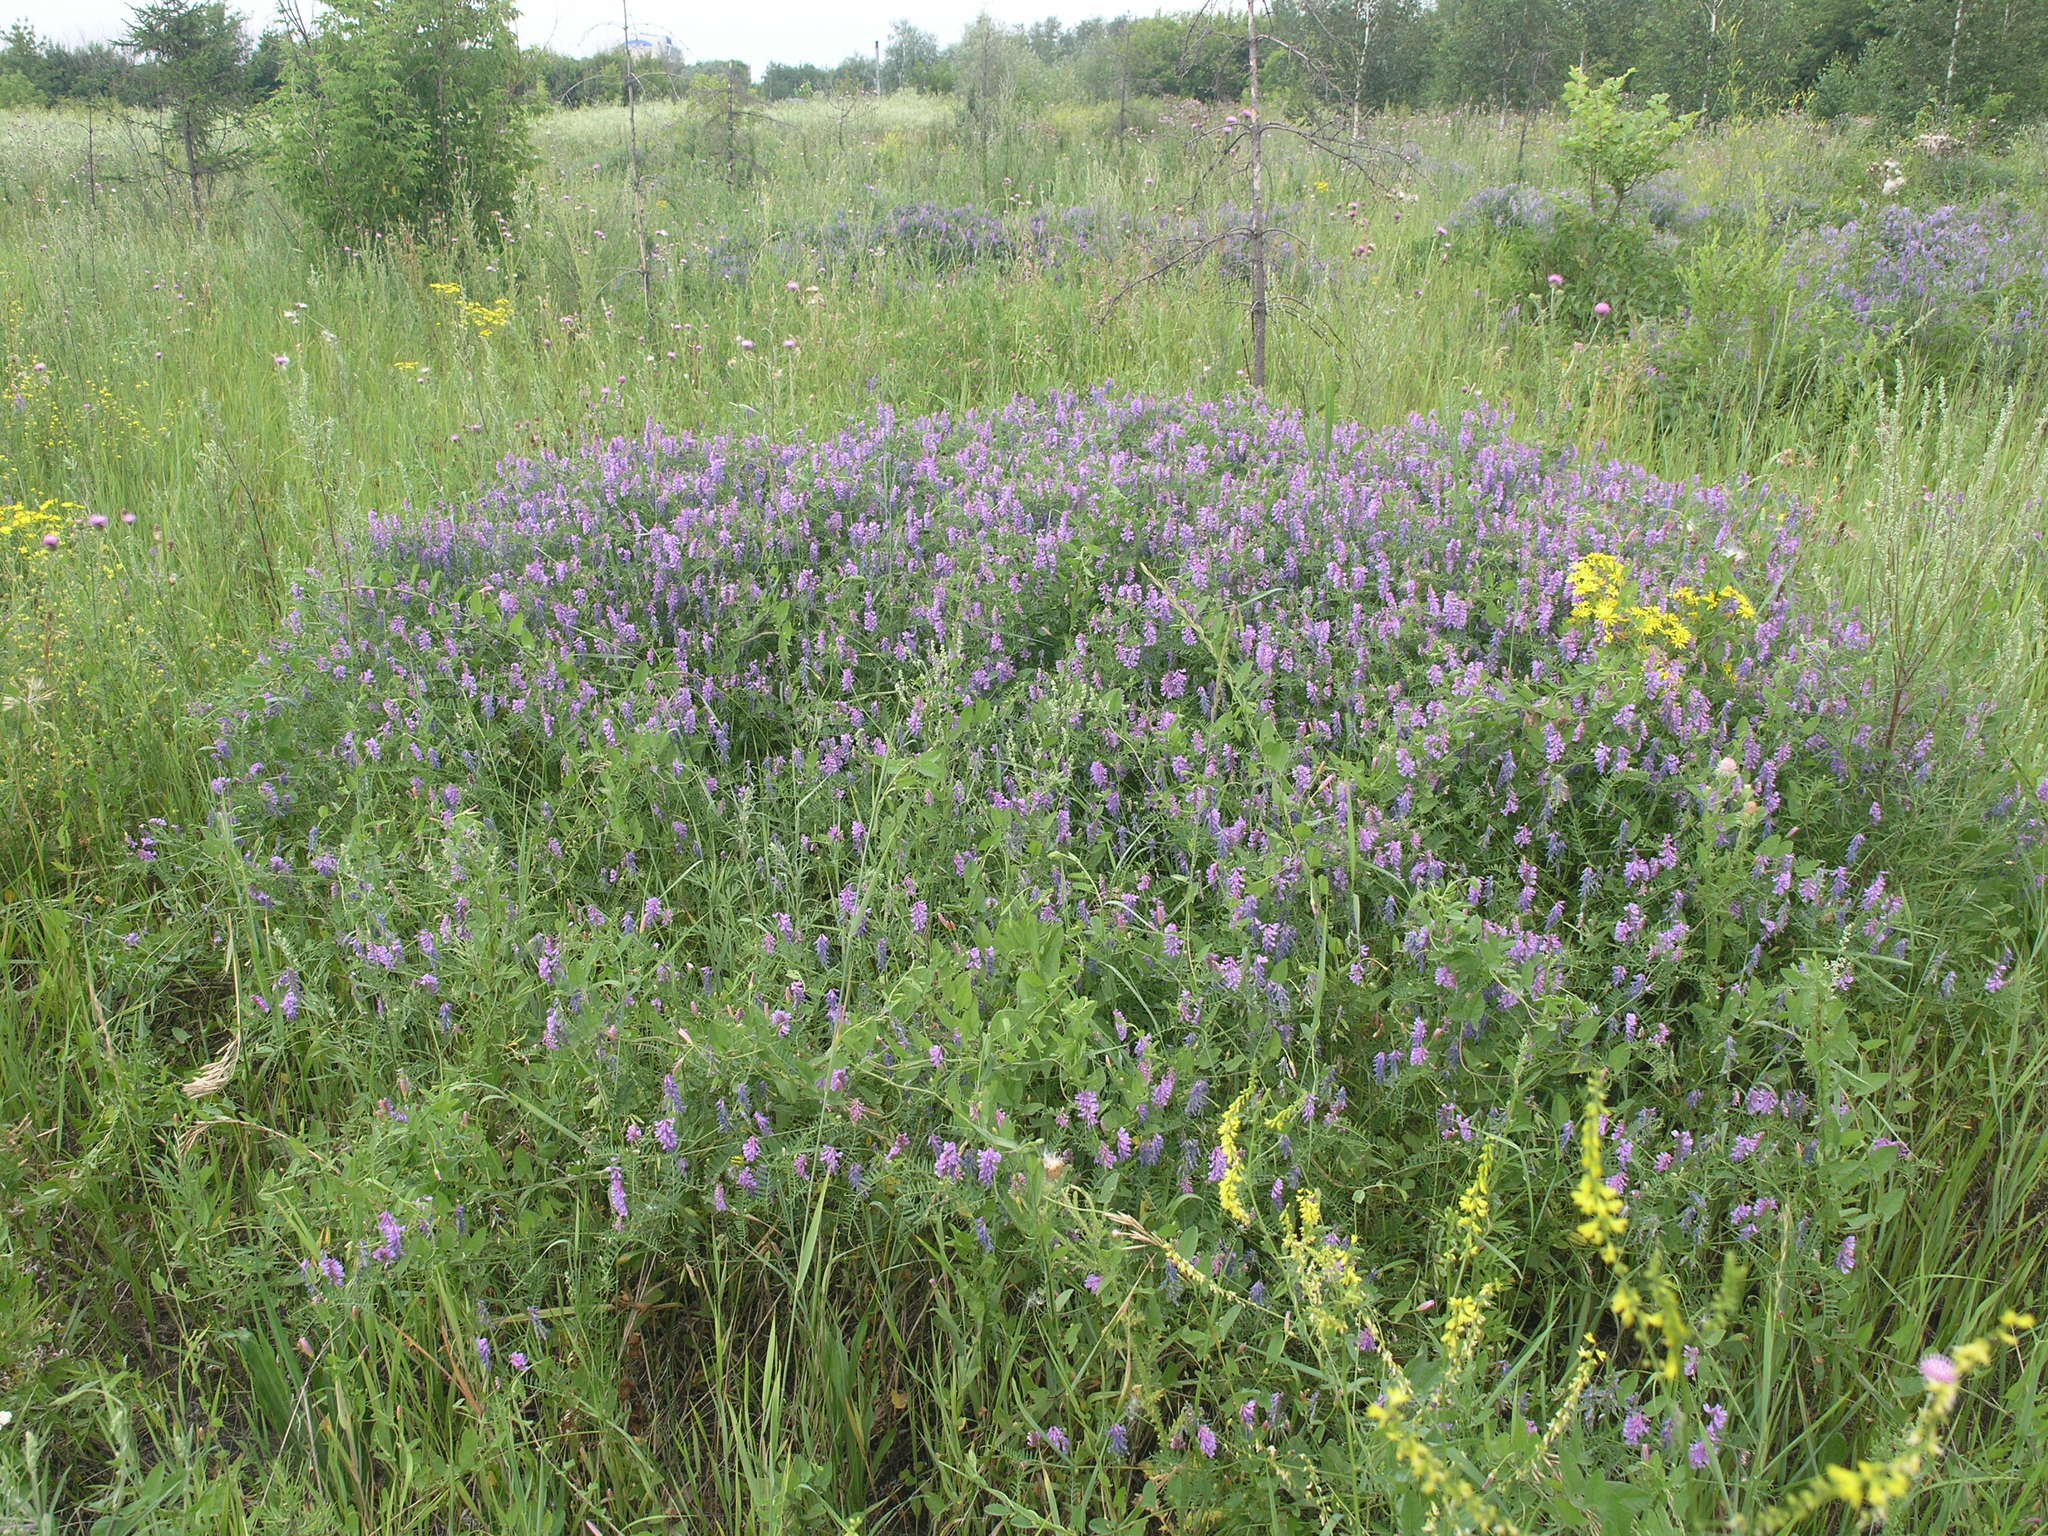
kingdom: Plantae
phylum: Tracheophyta
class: Magnoliopsida
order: Fabales
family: Fabaceae
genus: Vicia
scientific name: Vicia cracca
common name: Bird vetch
